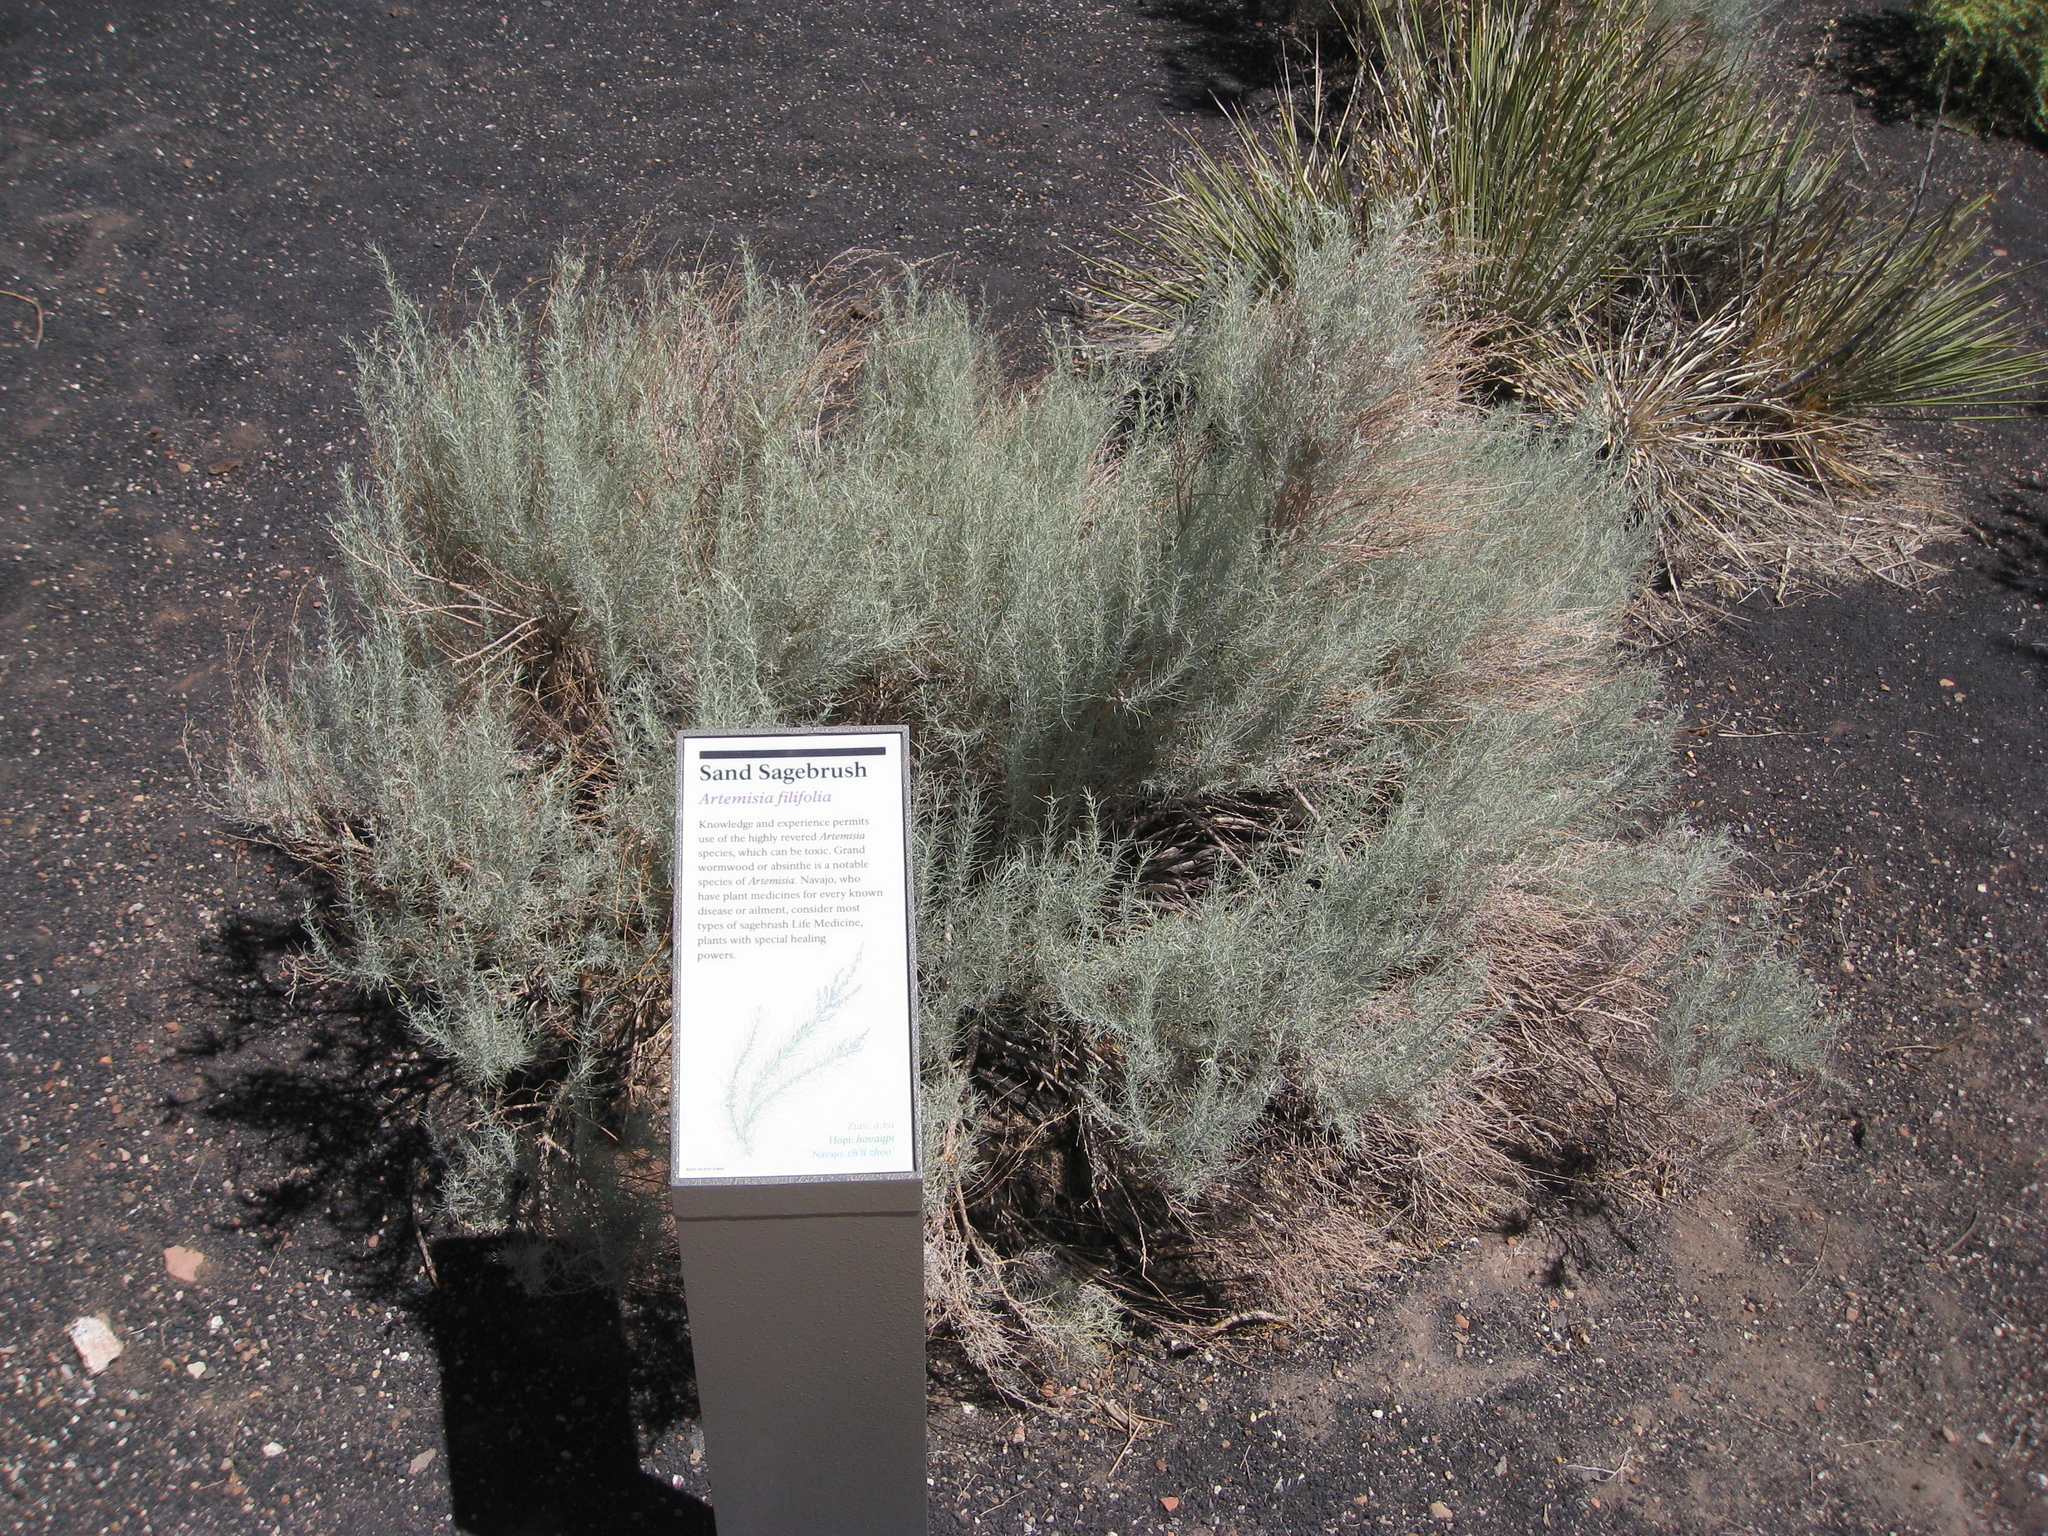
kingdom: Plantae
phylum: Tracheophyta
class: Magnoliopsida
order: Asterales
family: Asteraceae
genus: Artemisia
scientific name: Artemisia filifolia
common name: Sand-sage
